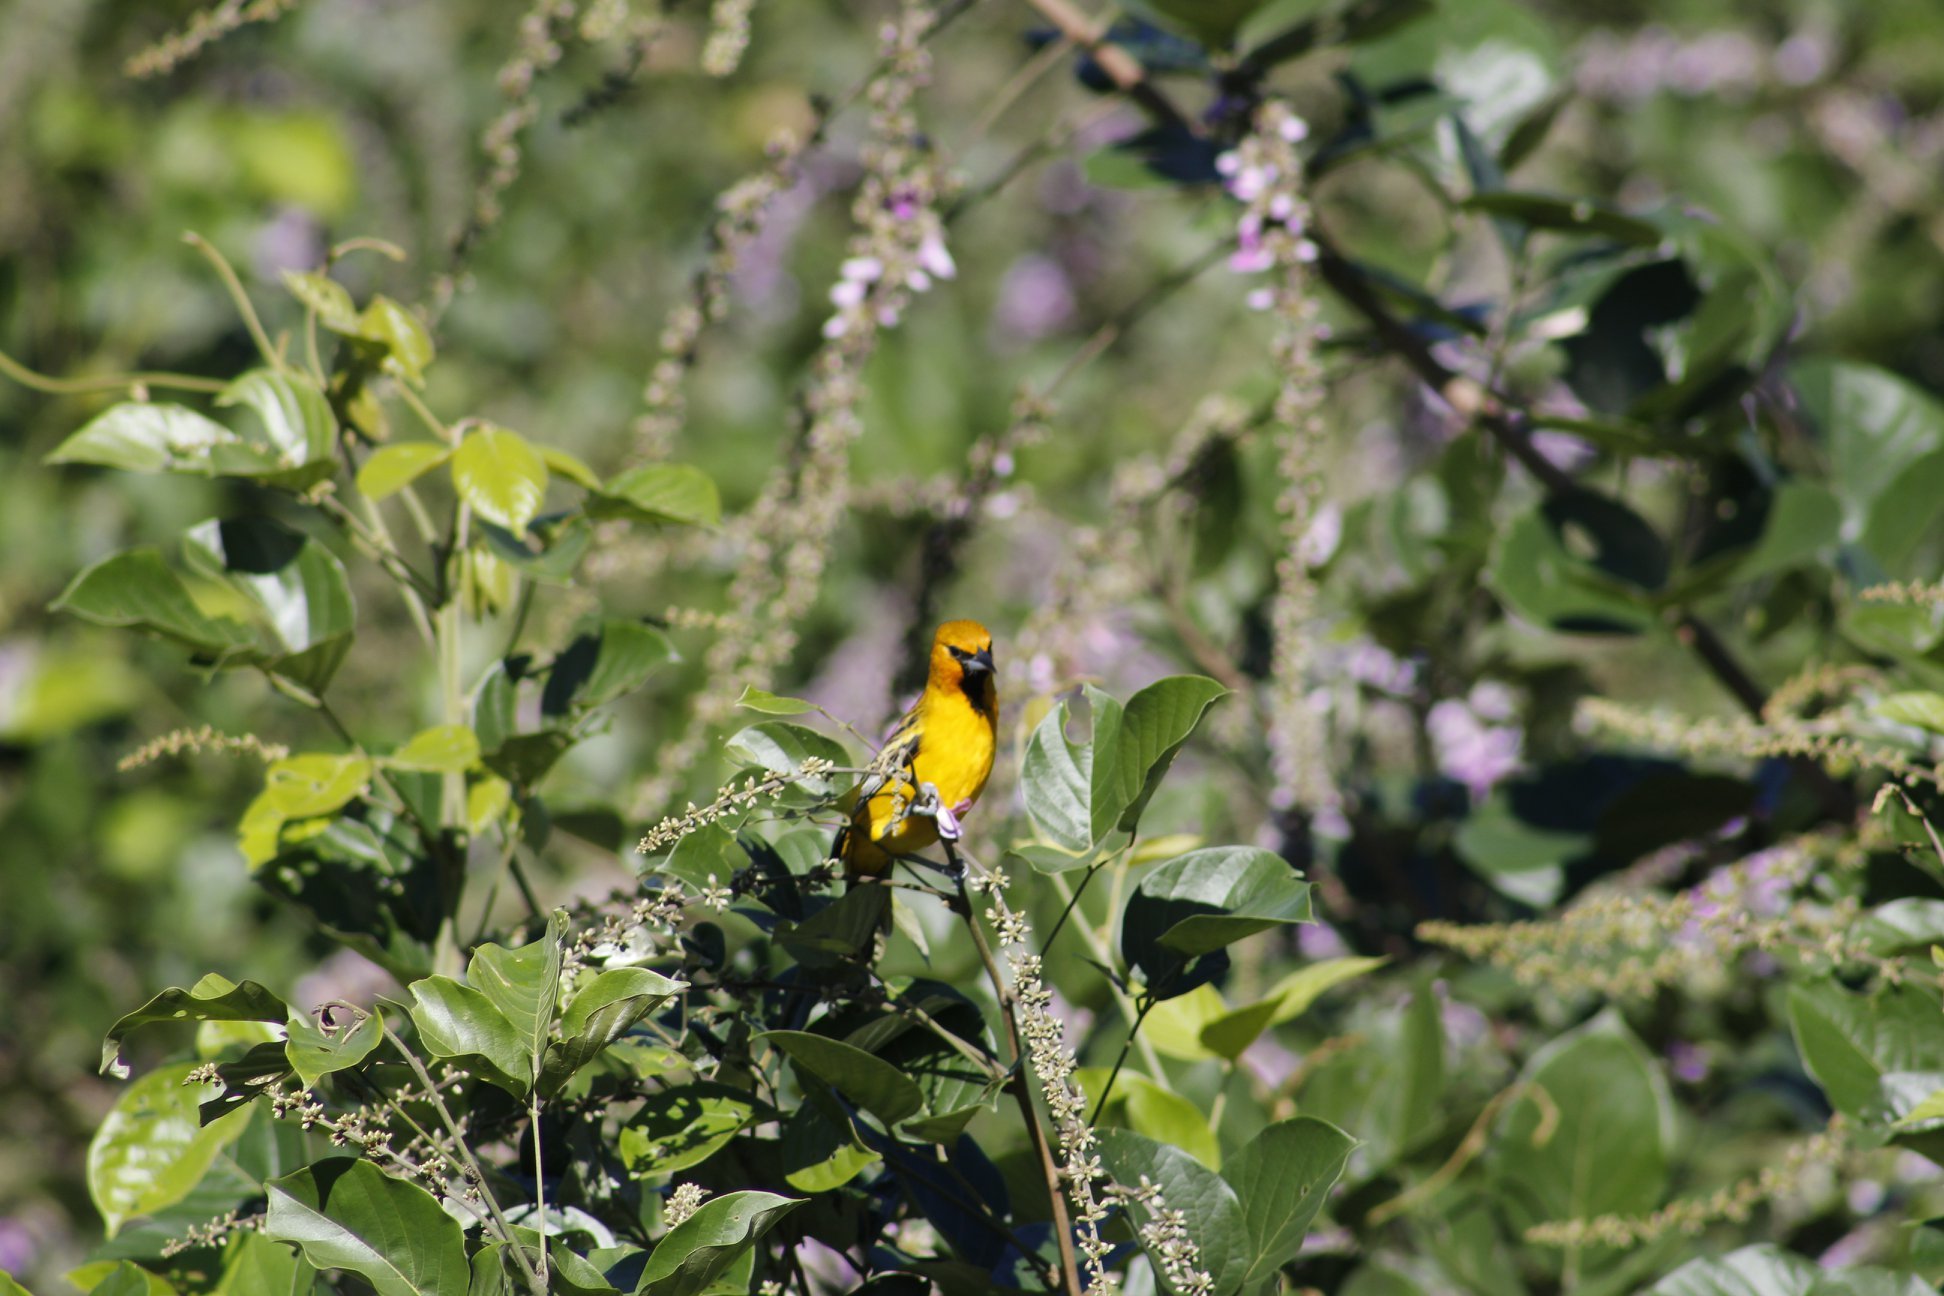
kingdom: Animalia
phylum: Chordata
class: Aves
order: Passeriformes
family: Icteridae
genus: Icterus
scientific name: Icterus pustulatus
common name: Streak-backed oriole
